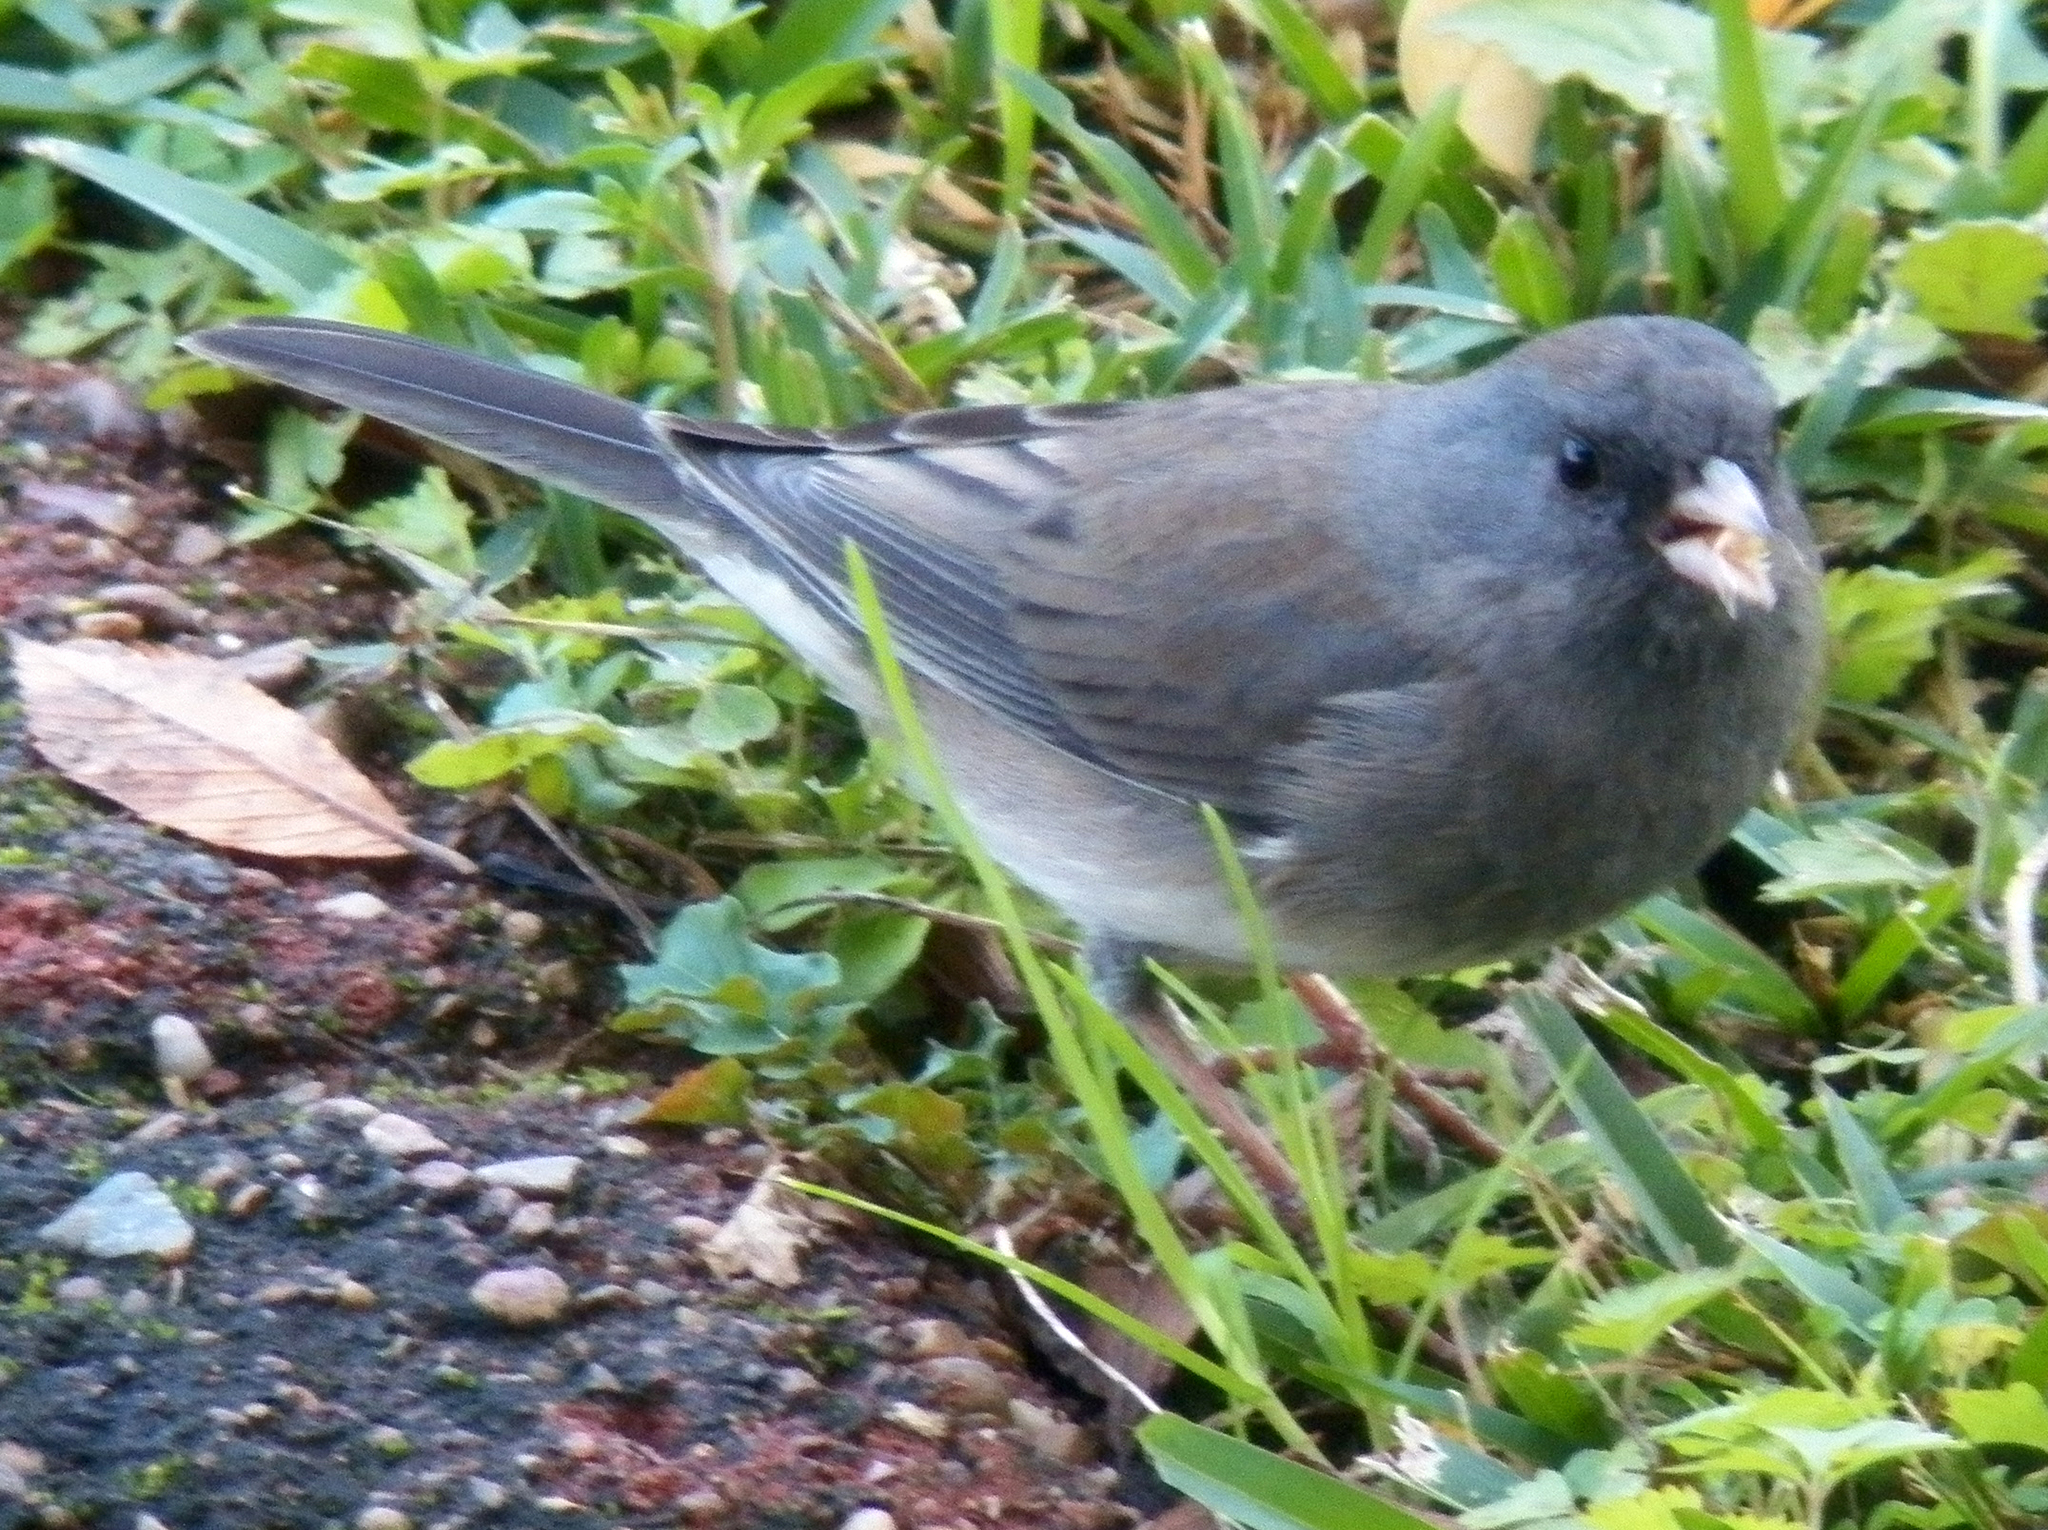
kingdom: Animalia
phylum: Chordata
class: Aves
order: Passeriformes
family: Passerellidae
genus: Junco
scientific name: Junco hyemalis
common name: Dark-eyed junco
